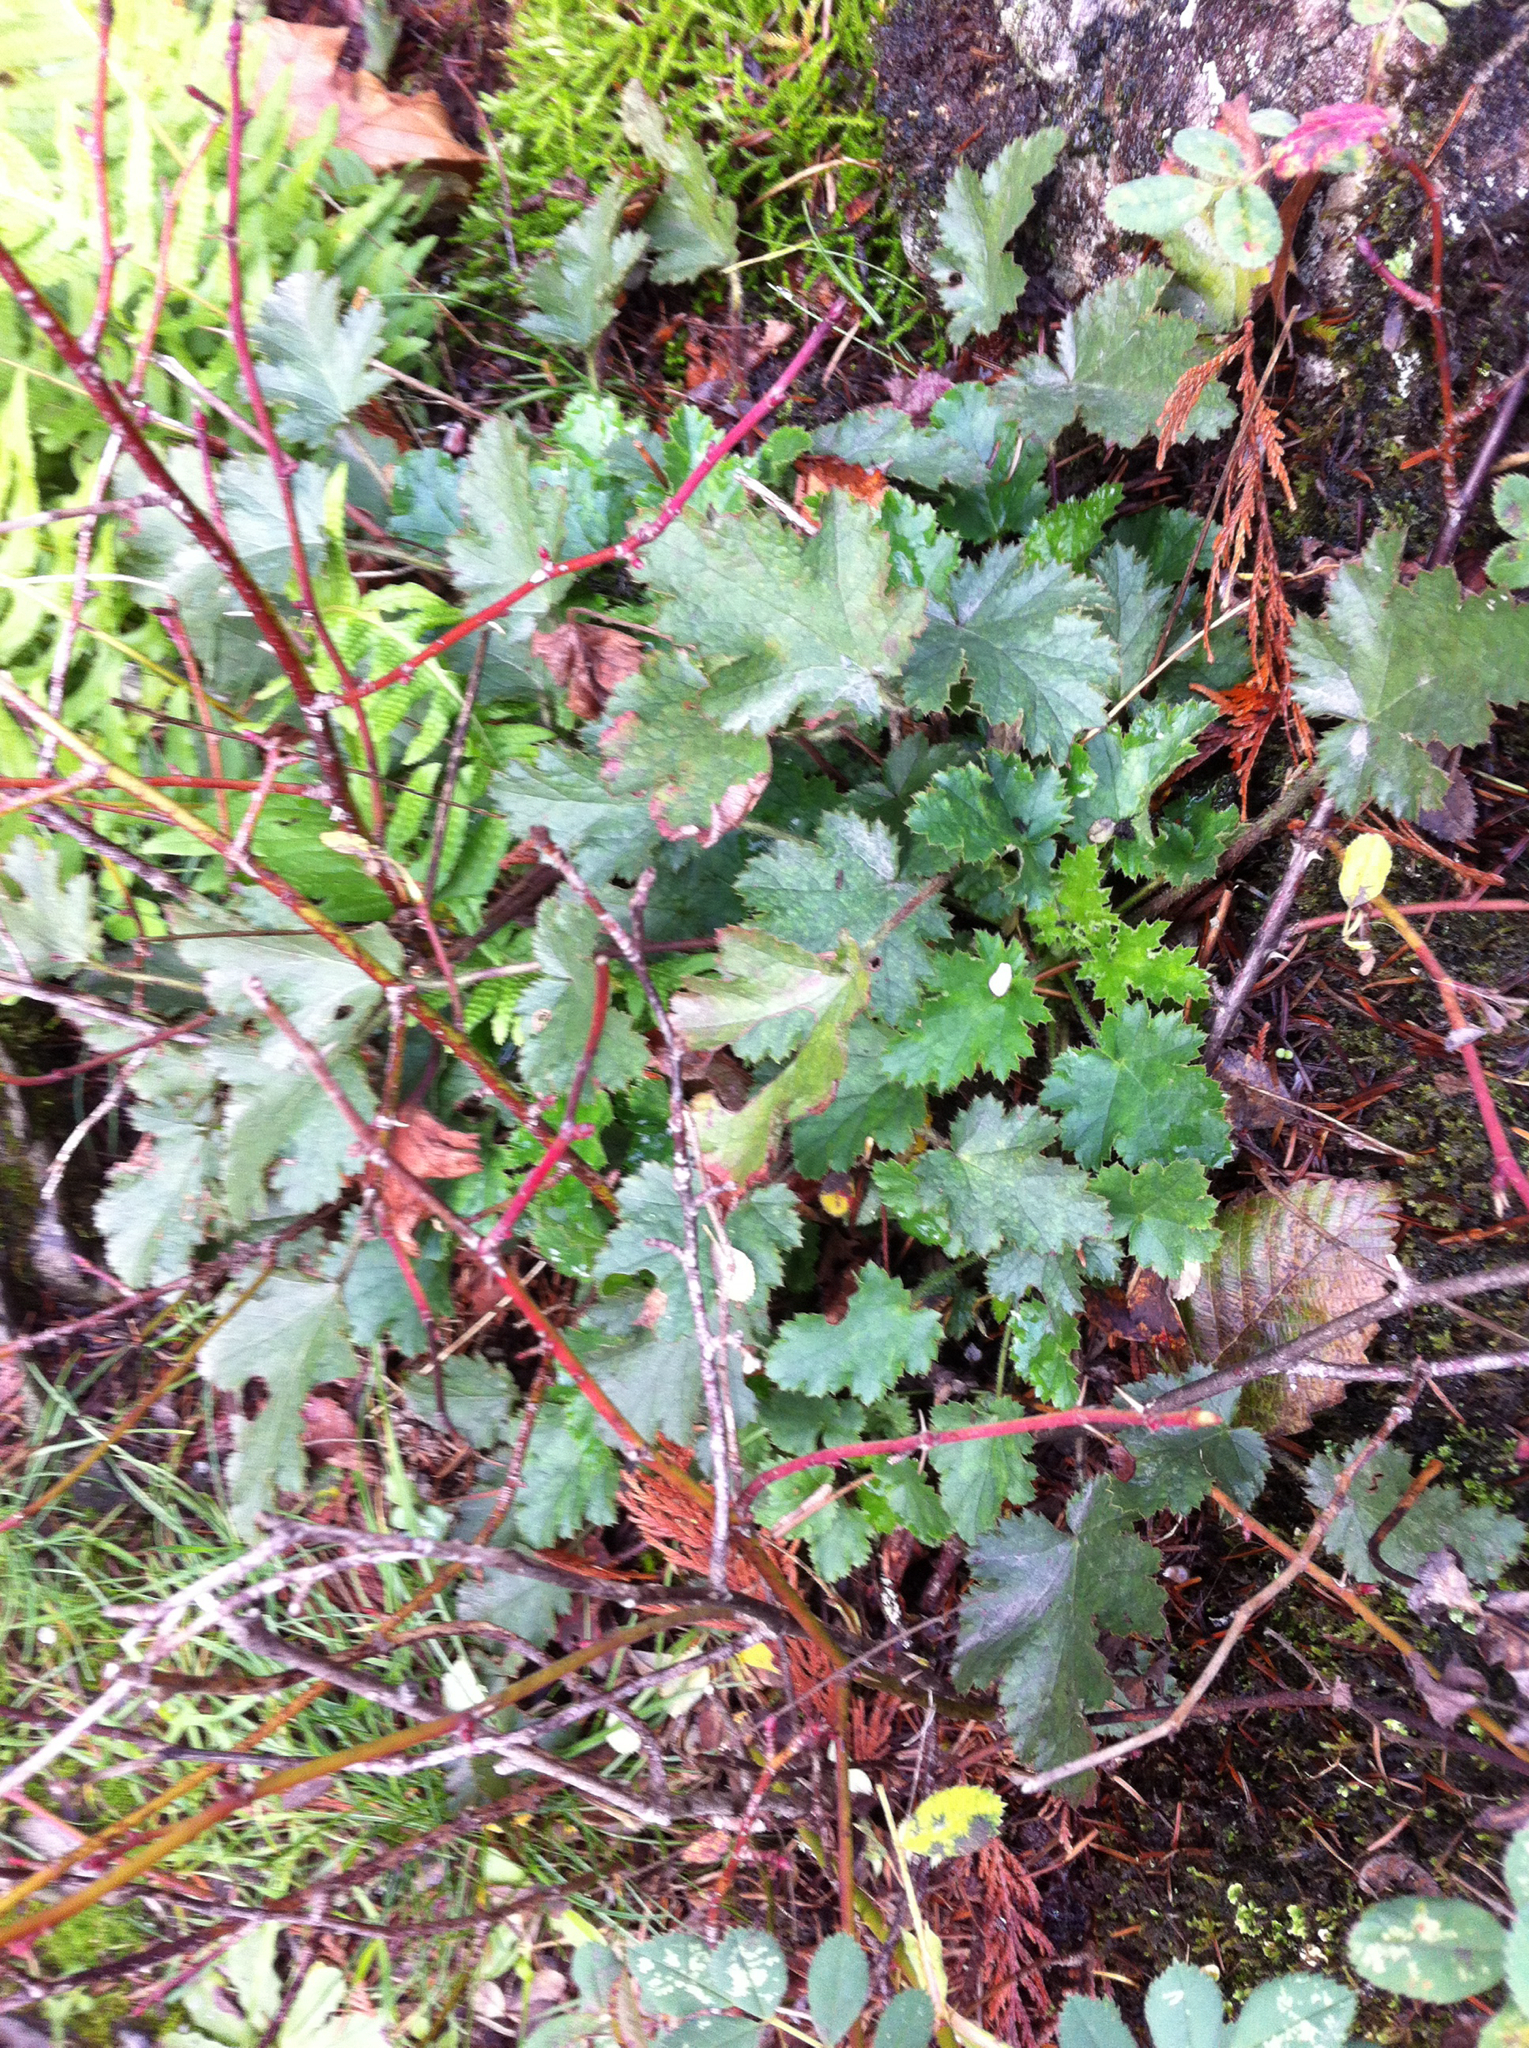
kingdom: Plantae
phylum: Tracheophyta
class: Magnoliopsida
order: Saxifragales
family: Saxifragaceae
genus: Heuchera
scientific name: Heuchera micrantha
